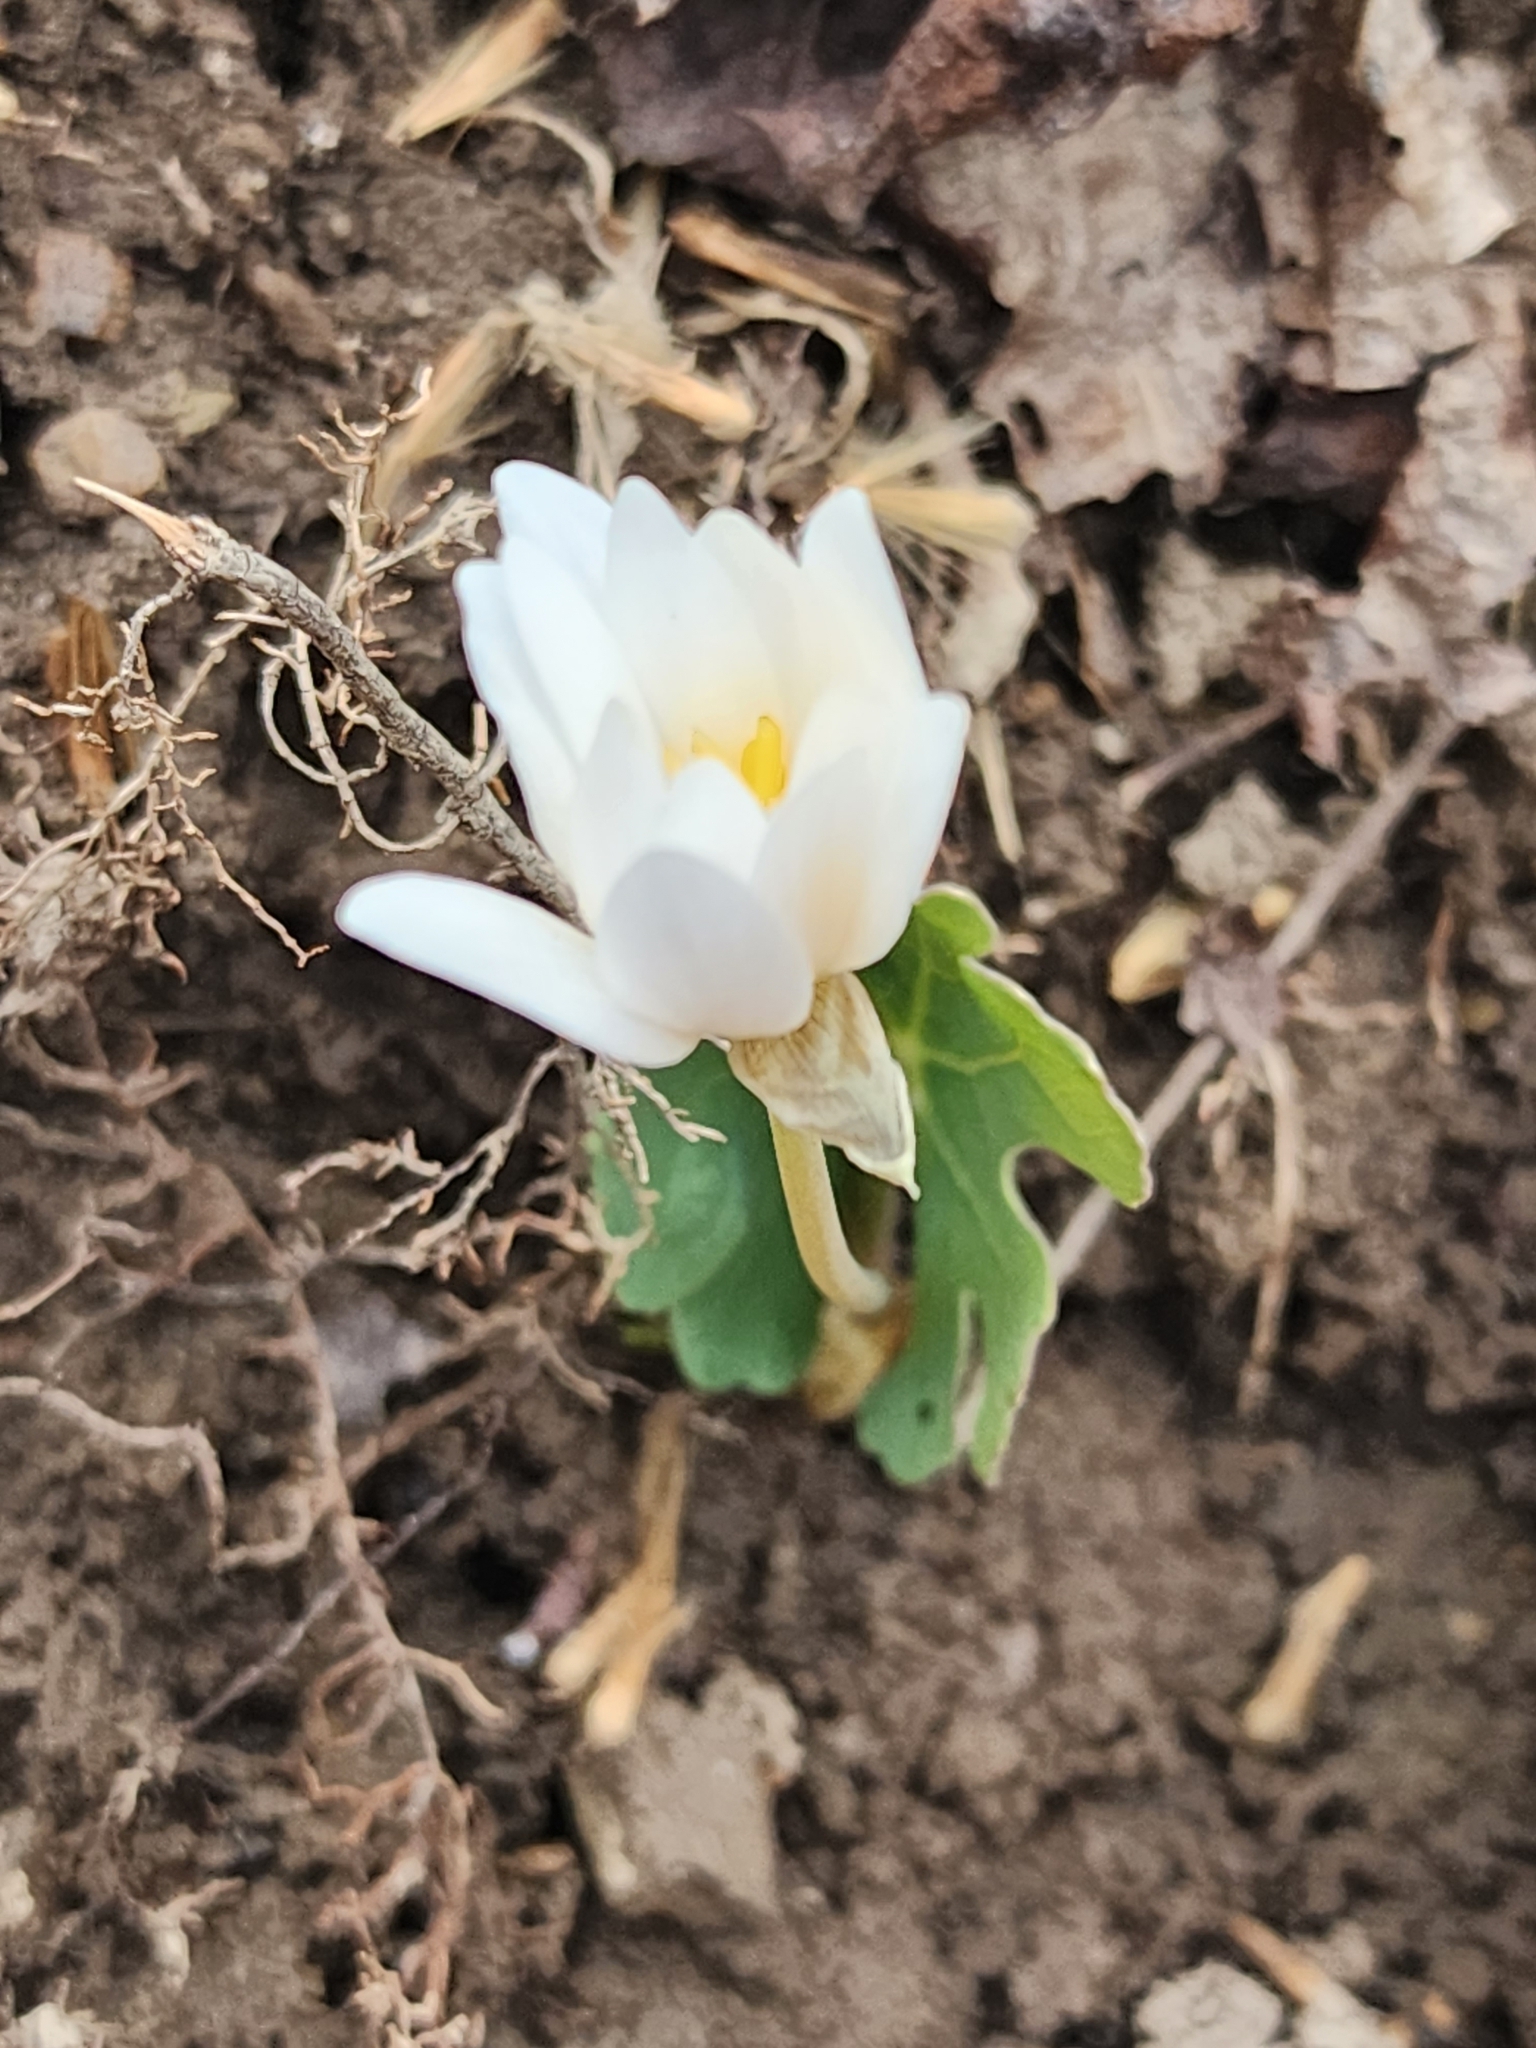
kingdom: Plantae
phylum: Tracheophyta
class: Magnoliopsida
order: Ranunculales
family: Papaveraceae
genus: Sanguinaria
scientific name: Sanguinaria canadensis
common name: Bloodroot
